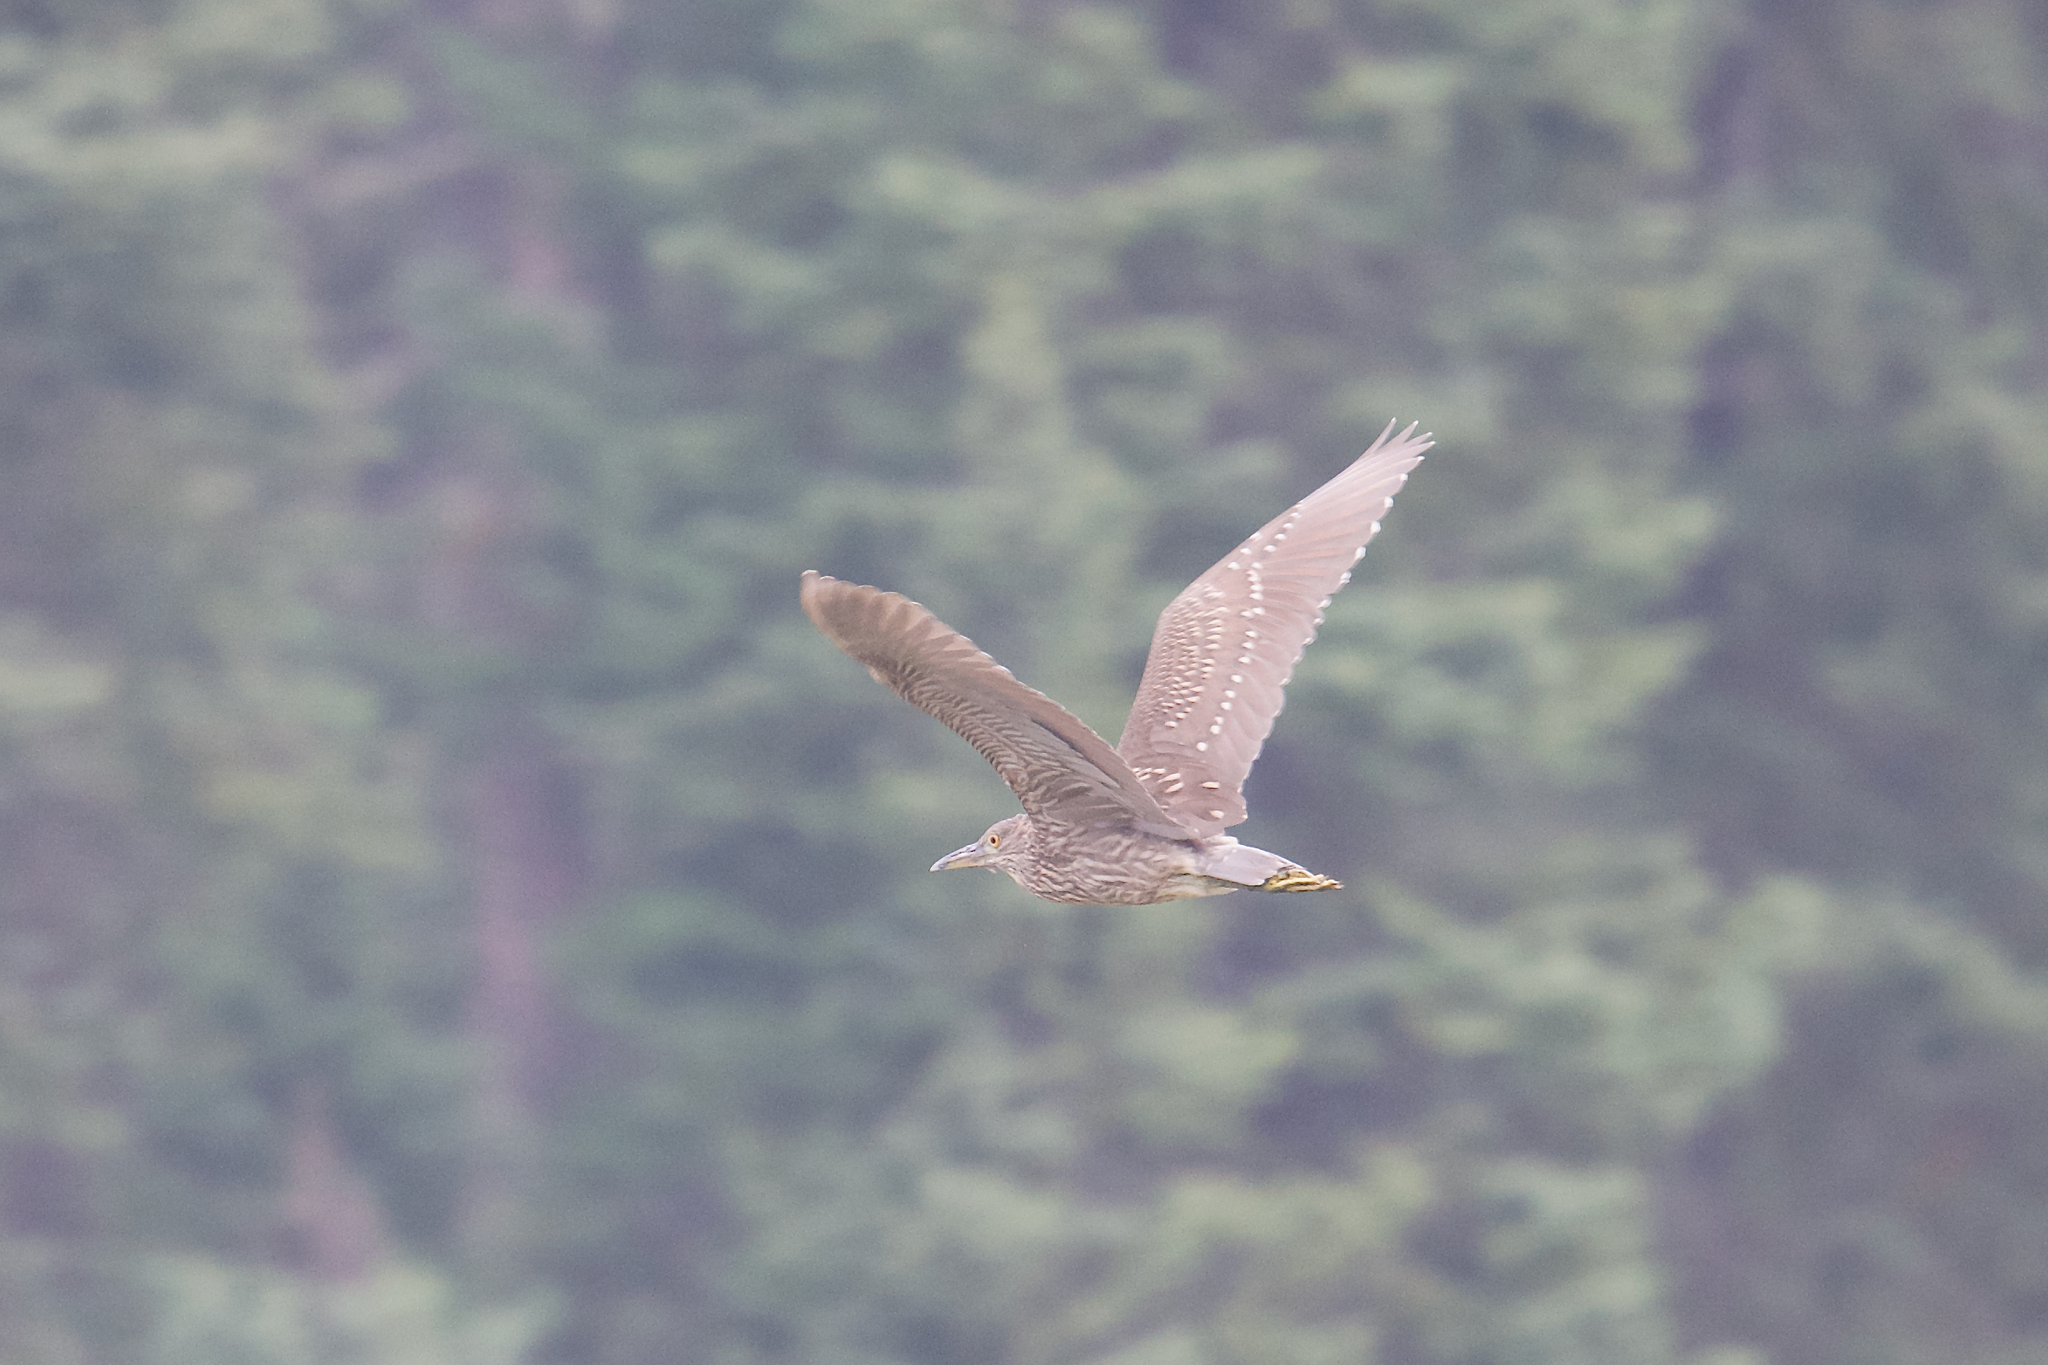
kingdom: Animalia
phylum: Chordata
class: Aves
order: Pelecaniformes
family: Ardeidae
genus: Nycticorax
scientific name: Nycticorax nycticorax
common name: Black-crowned night heron
